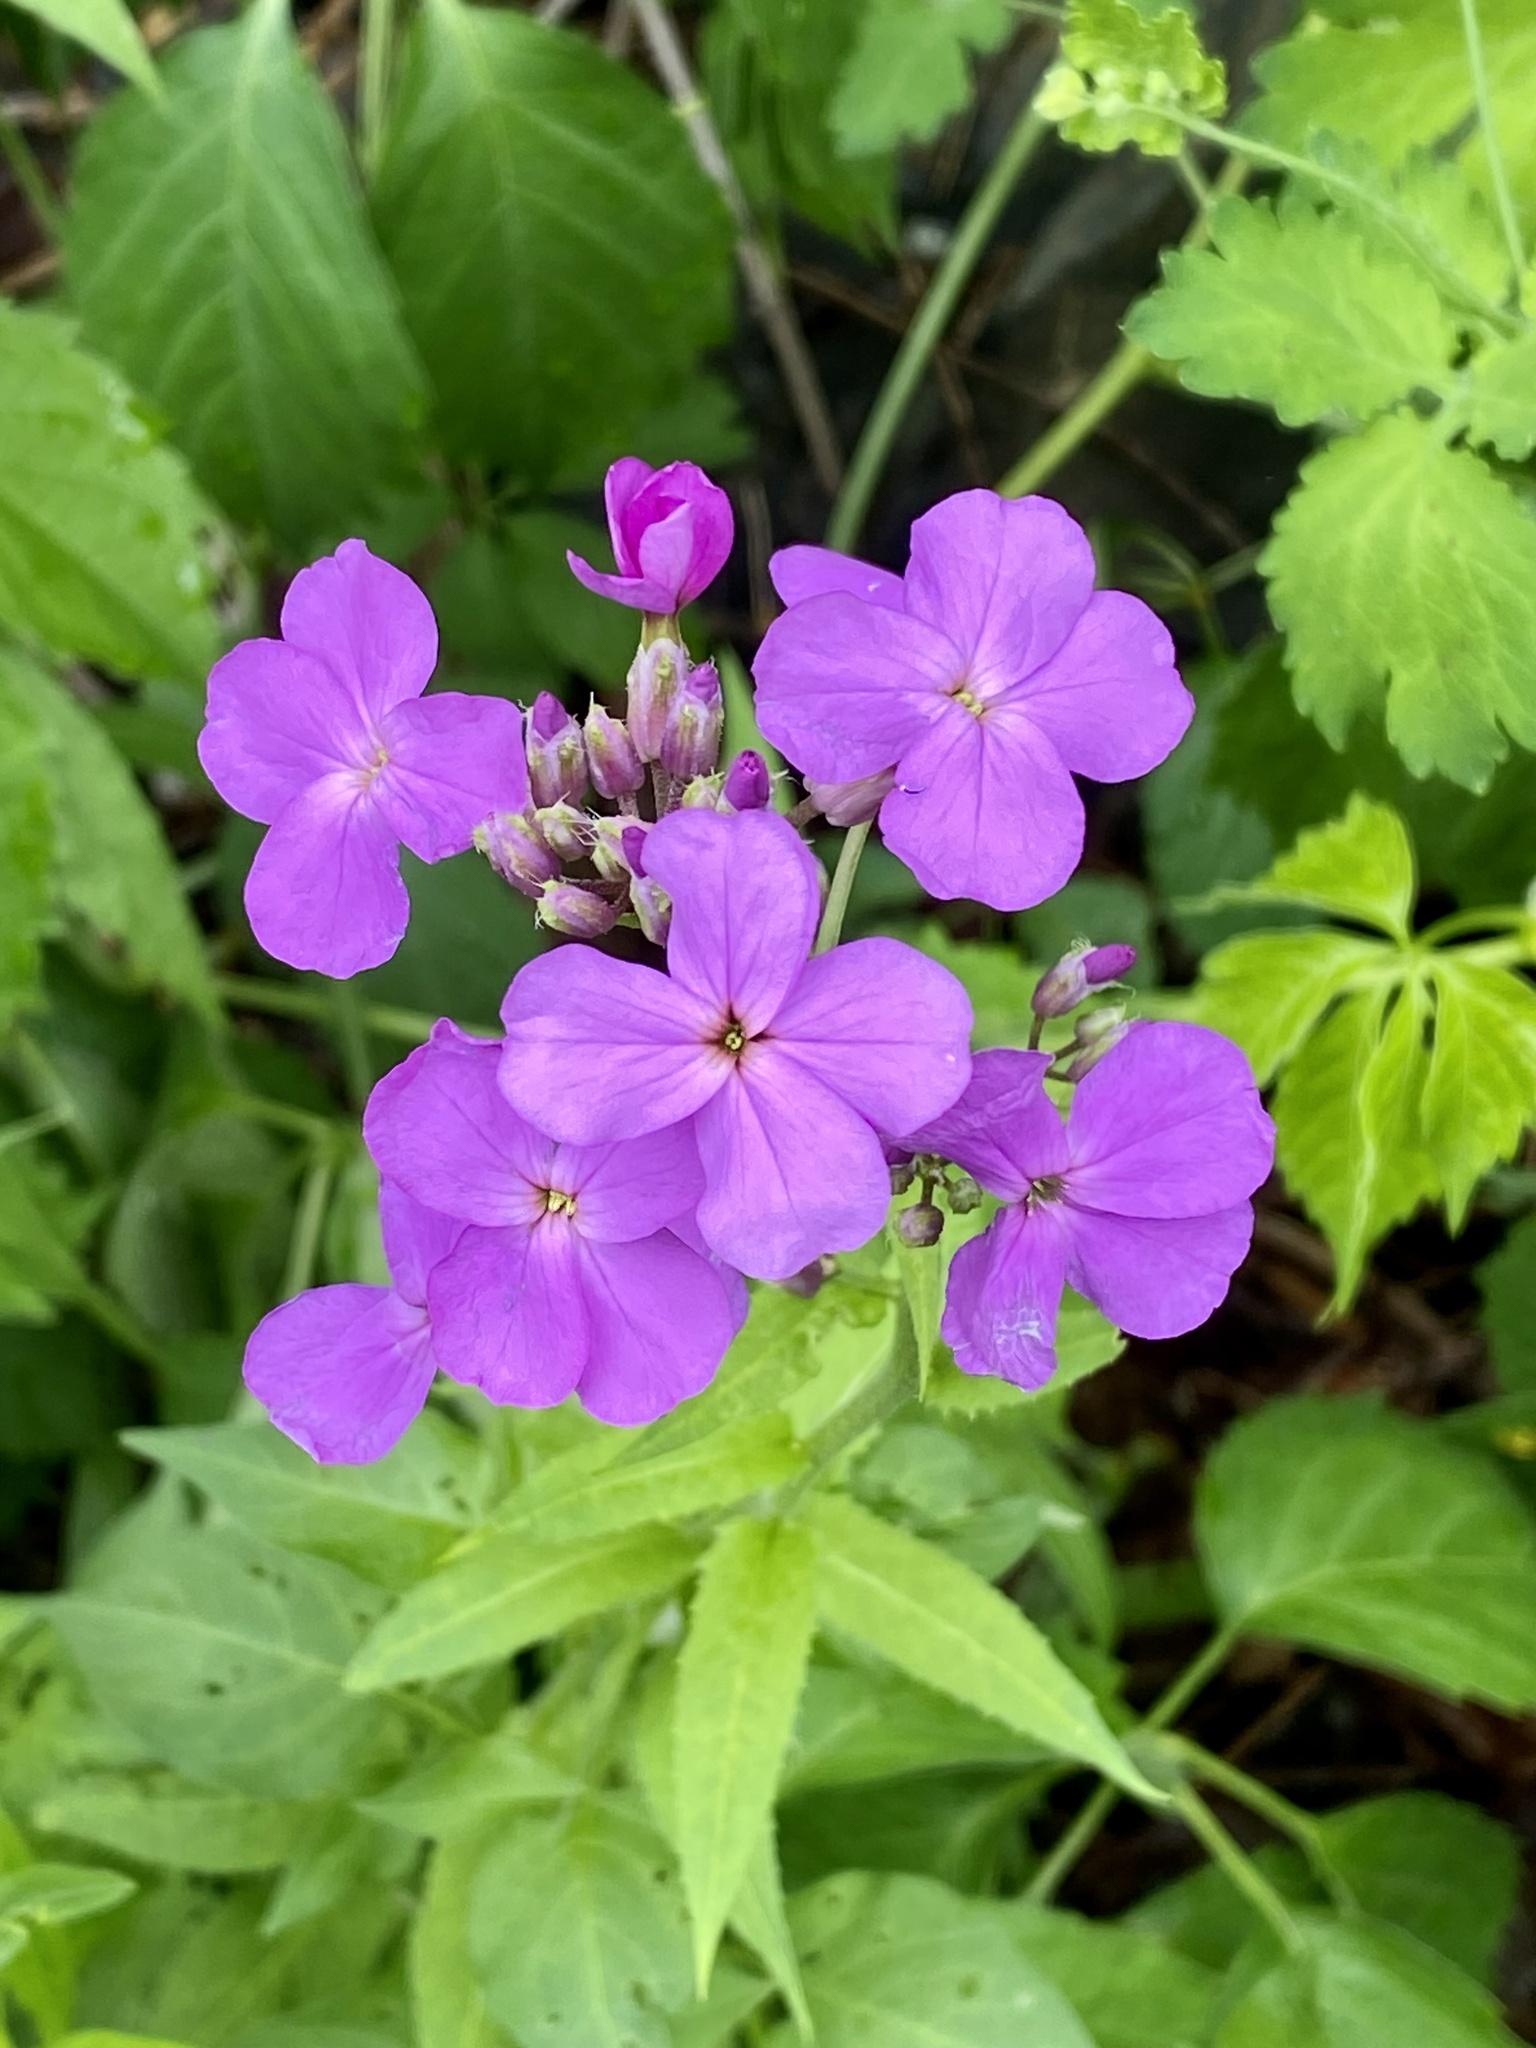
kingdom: Plantae
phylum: Tracheophyta
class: Magnoliopsida
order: Brassicales
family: Brassicaceae
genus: Hesperis
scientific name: Hesperis matronalis
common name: Dame's-violet
